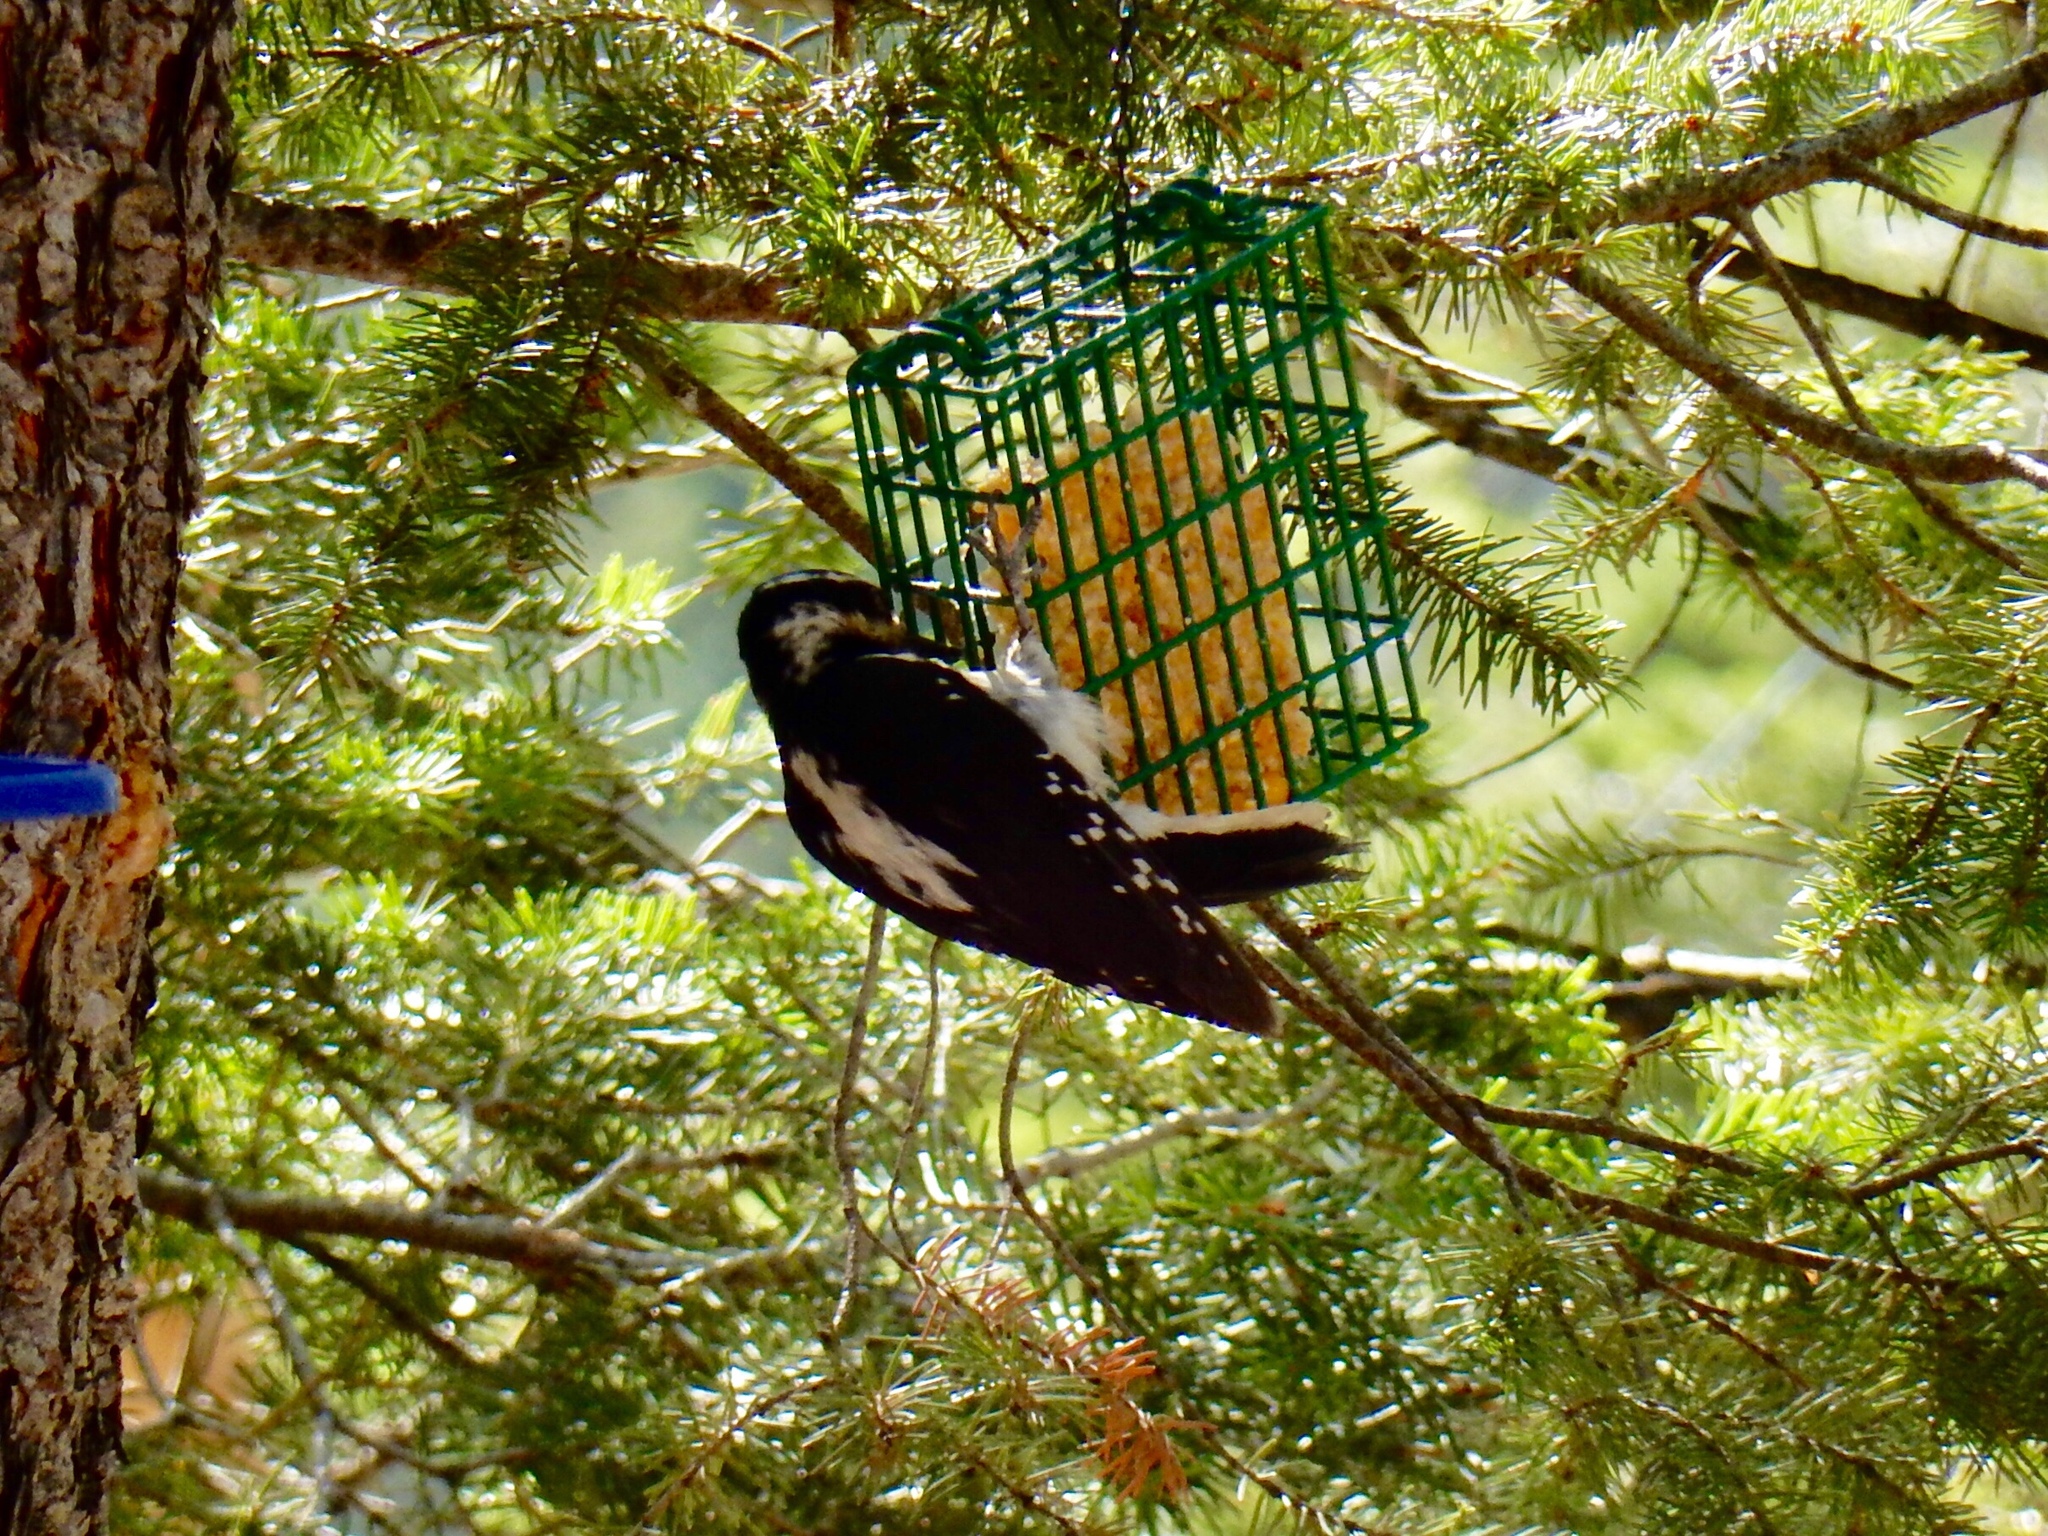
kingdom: Animalia
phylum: Chordata
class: Aves
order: Piciformes
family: Picidae
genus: Leuconotopicus
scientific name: Leuconotopicus villosus
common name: Hairy woodpecker
